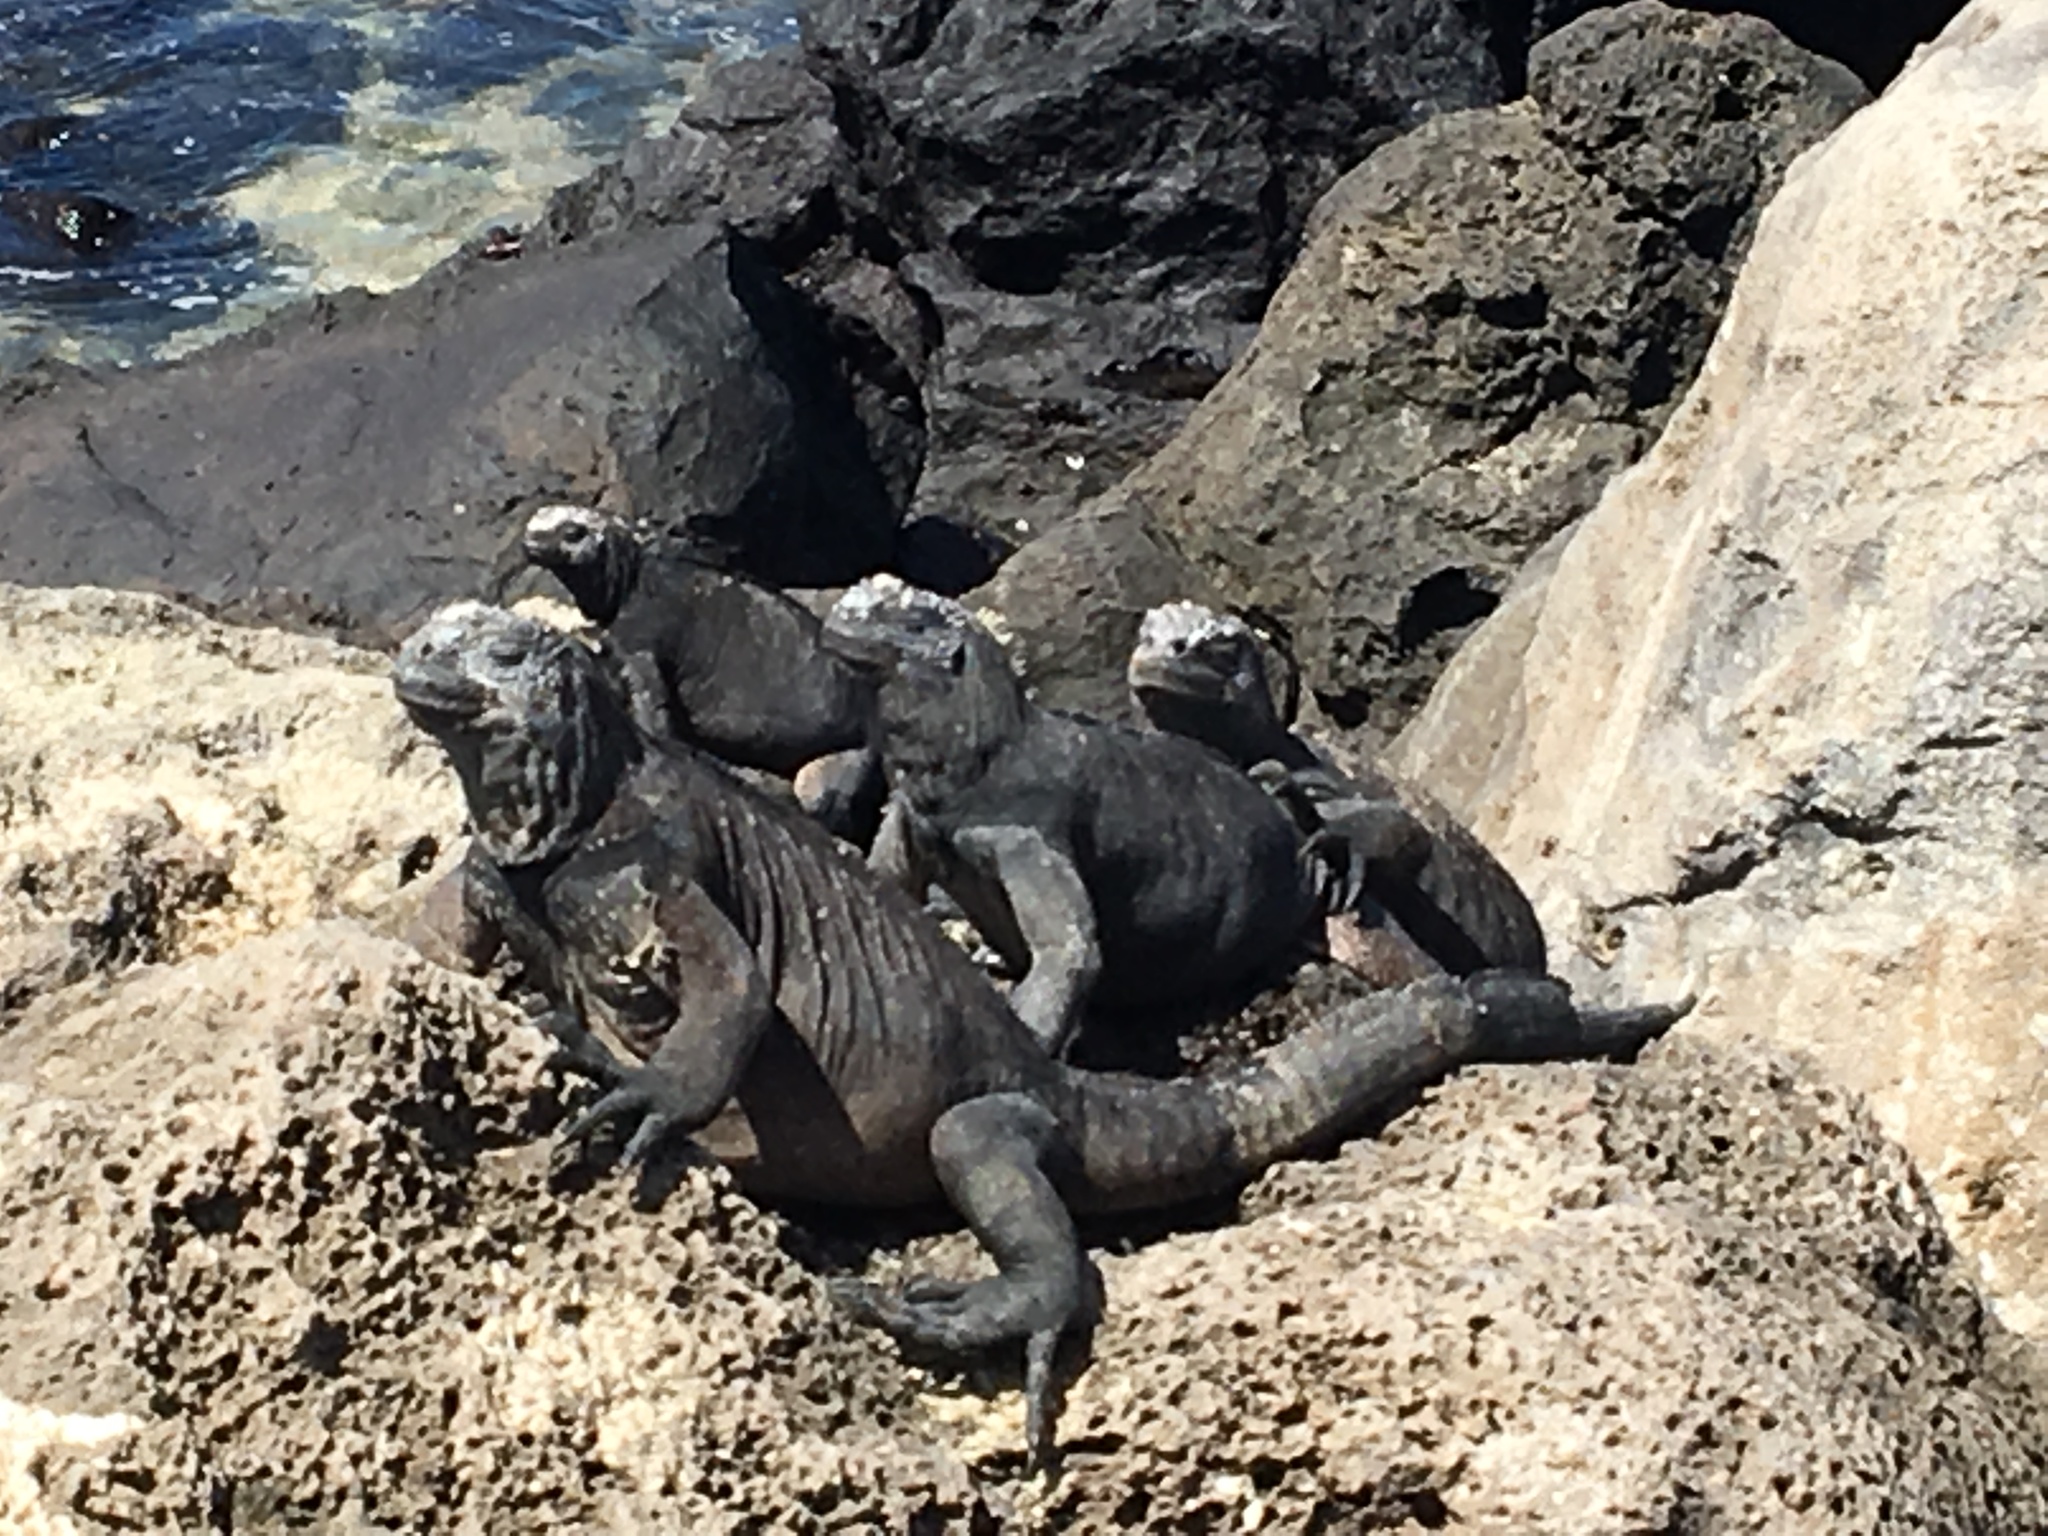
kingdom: Animalia
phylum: Chordata
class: Squamata
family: Iguanidae
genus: Amblyrhynchus
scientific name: Amblyrhynchus cristatus
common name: Marine iguana
